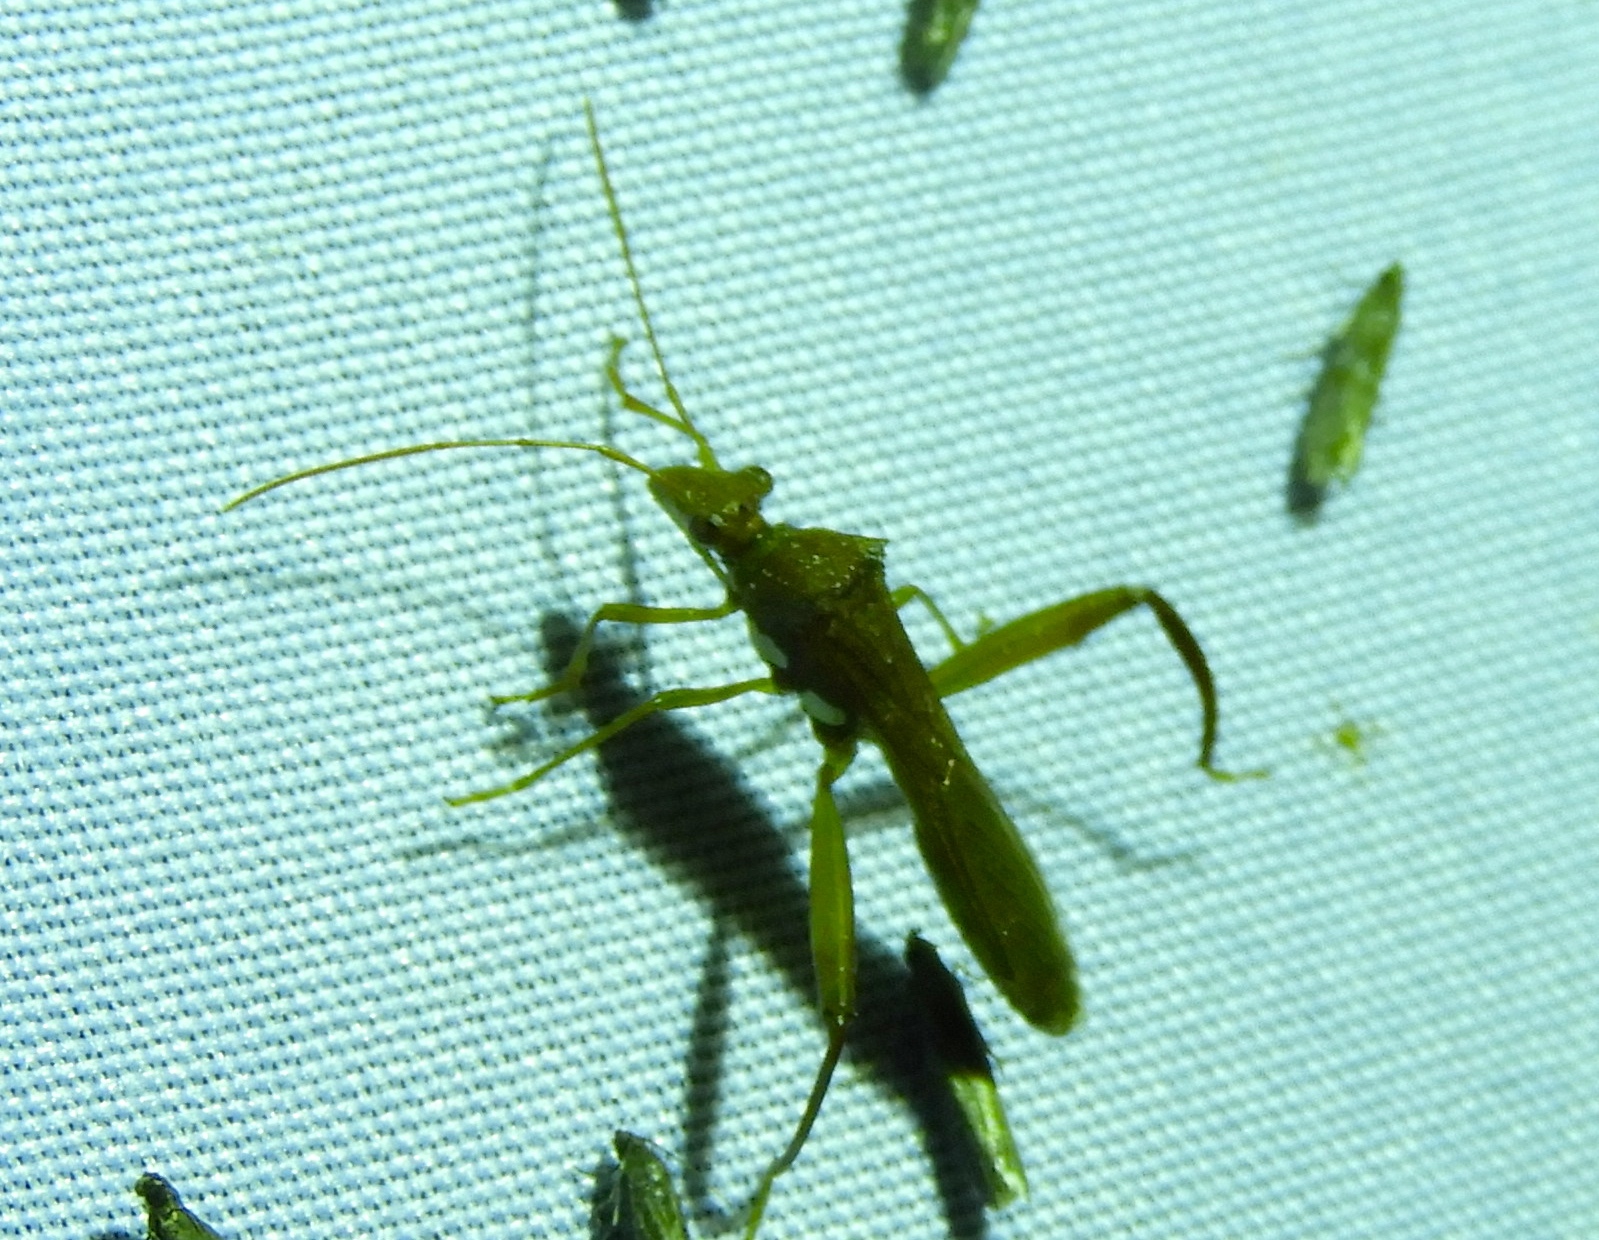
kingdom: Animalia
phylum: Arthropoda
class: Insecta
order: Hemiptera
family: Alydidae
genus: Hyalymenus
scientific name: Hyalymenus
